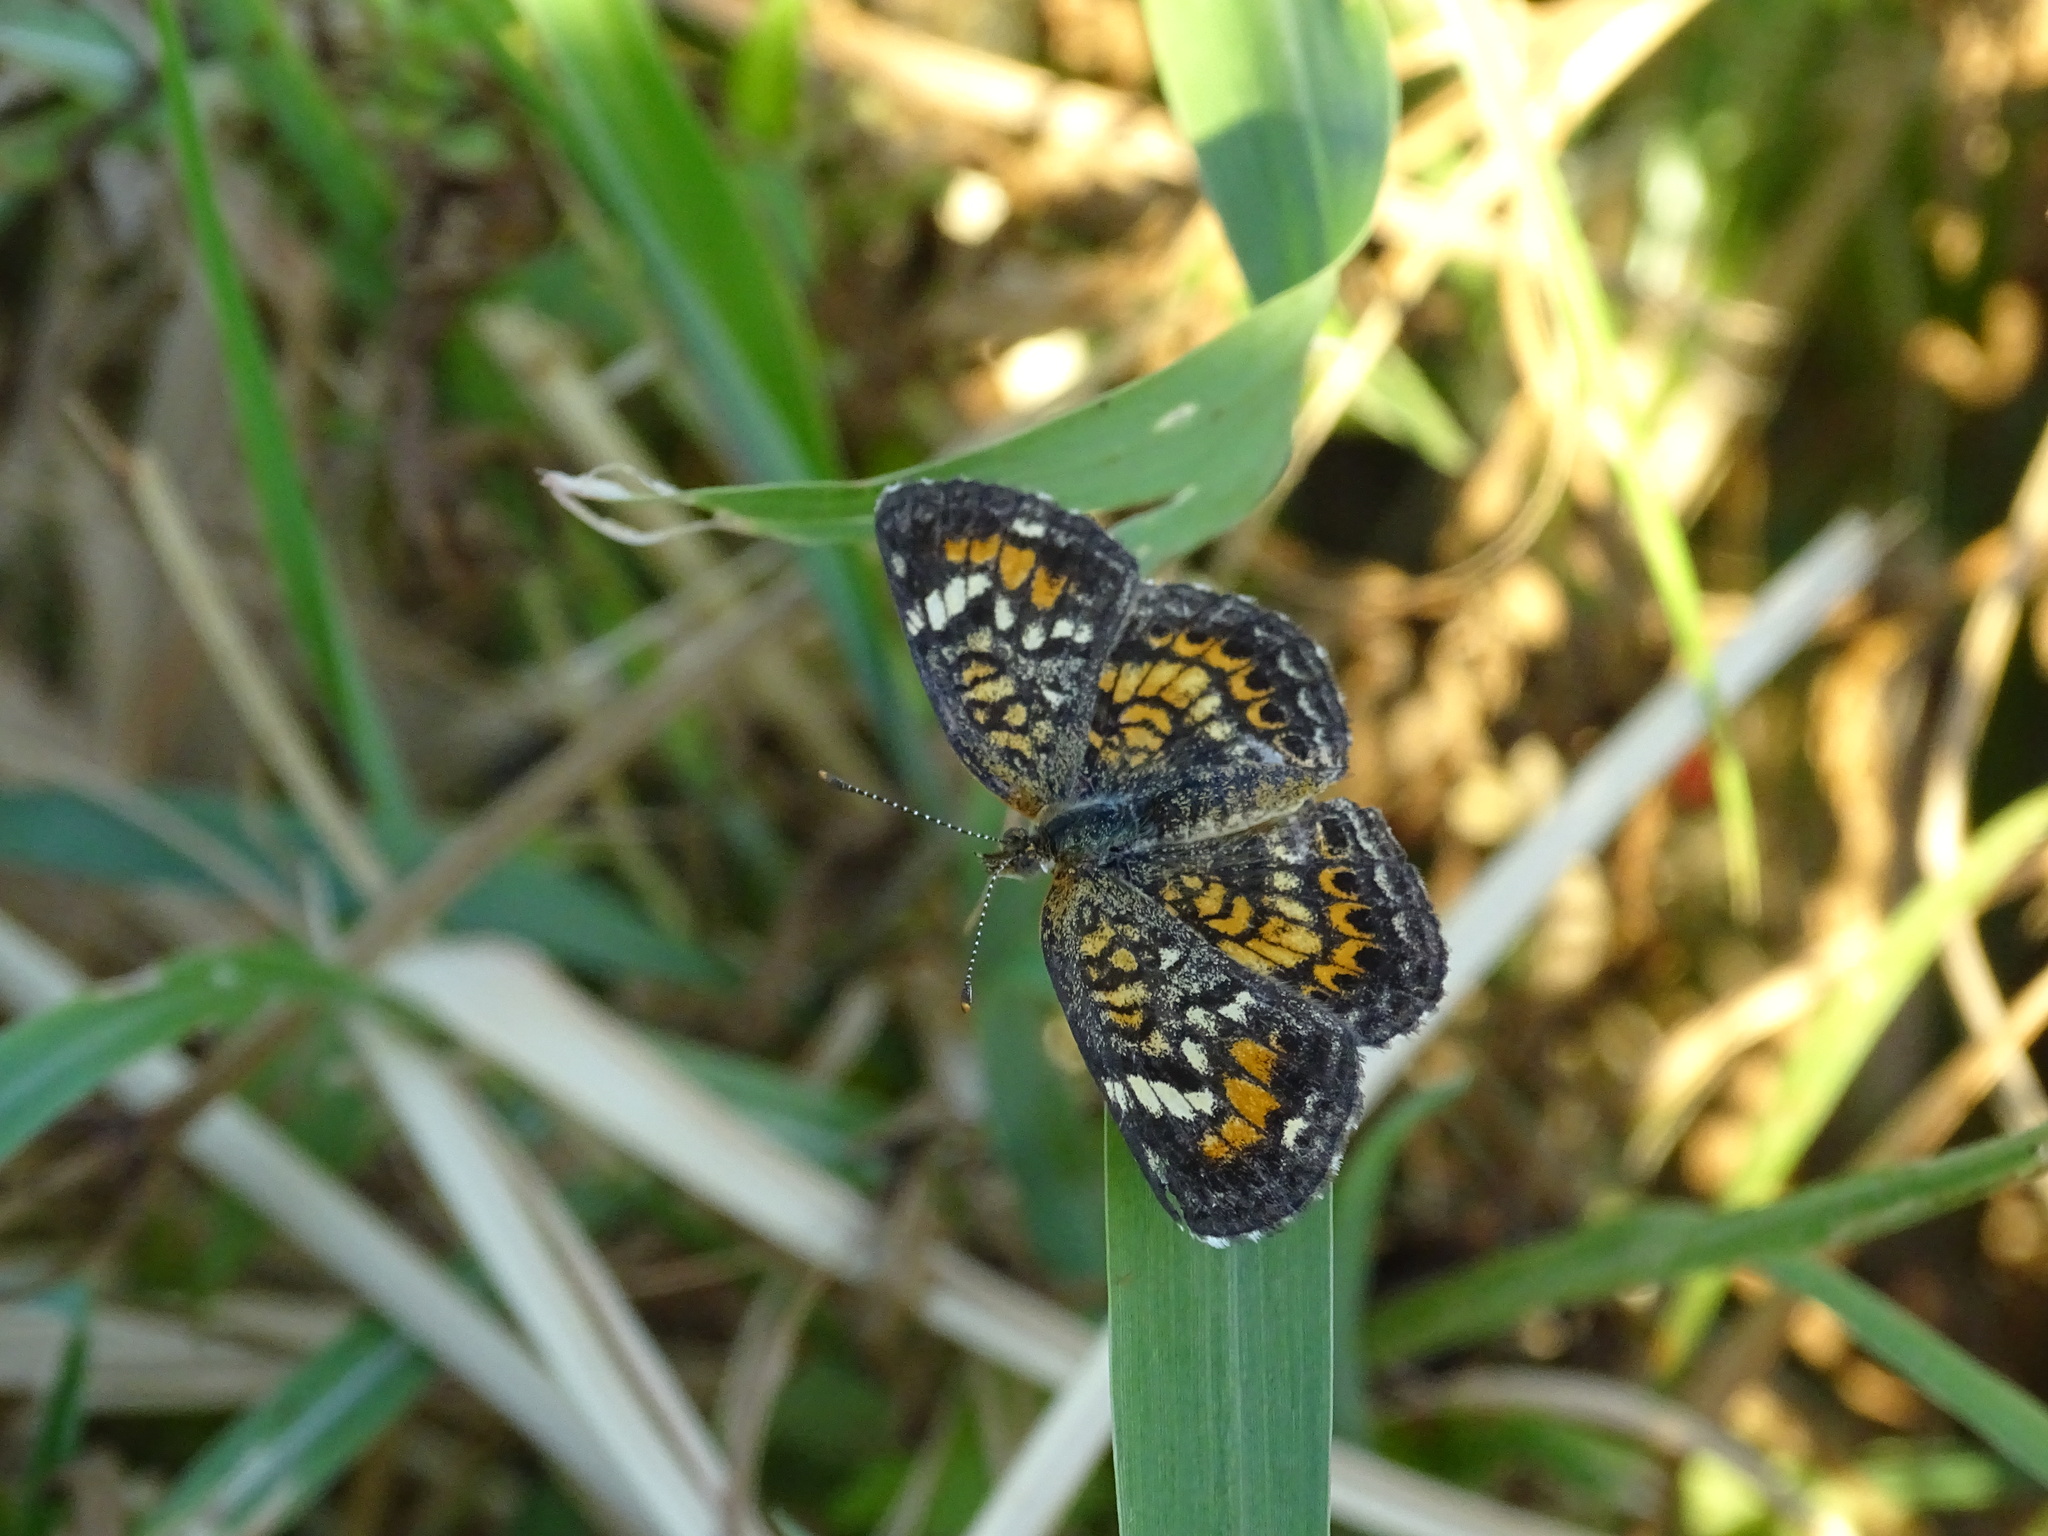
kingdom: Animalia
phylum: Arthropoda
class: Insecta
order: Lepidoptera
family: Nymphalidae
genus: Phyciodes
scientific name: Phyciodes phaon
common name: Phaon crescent
